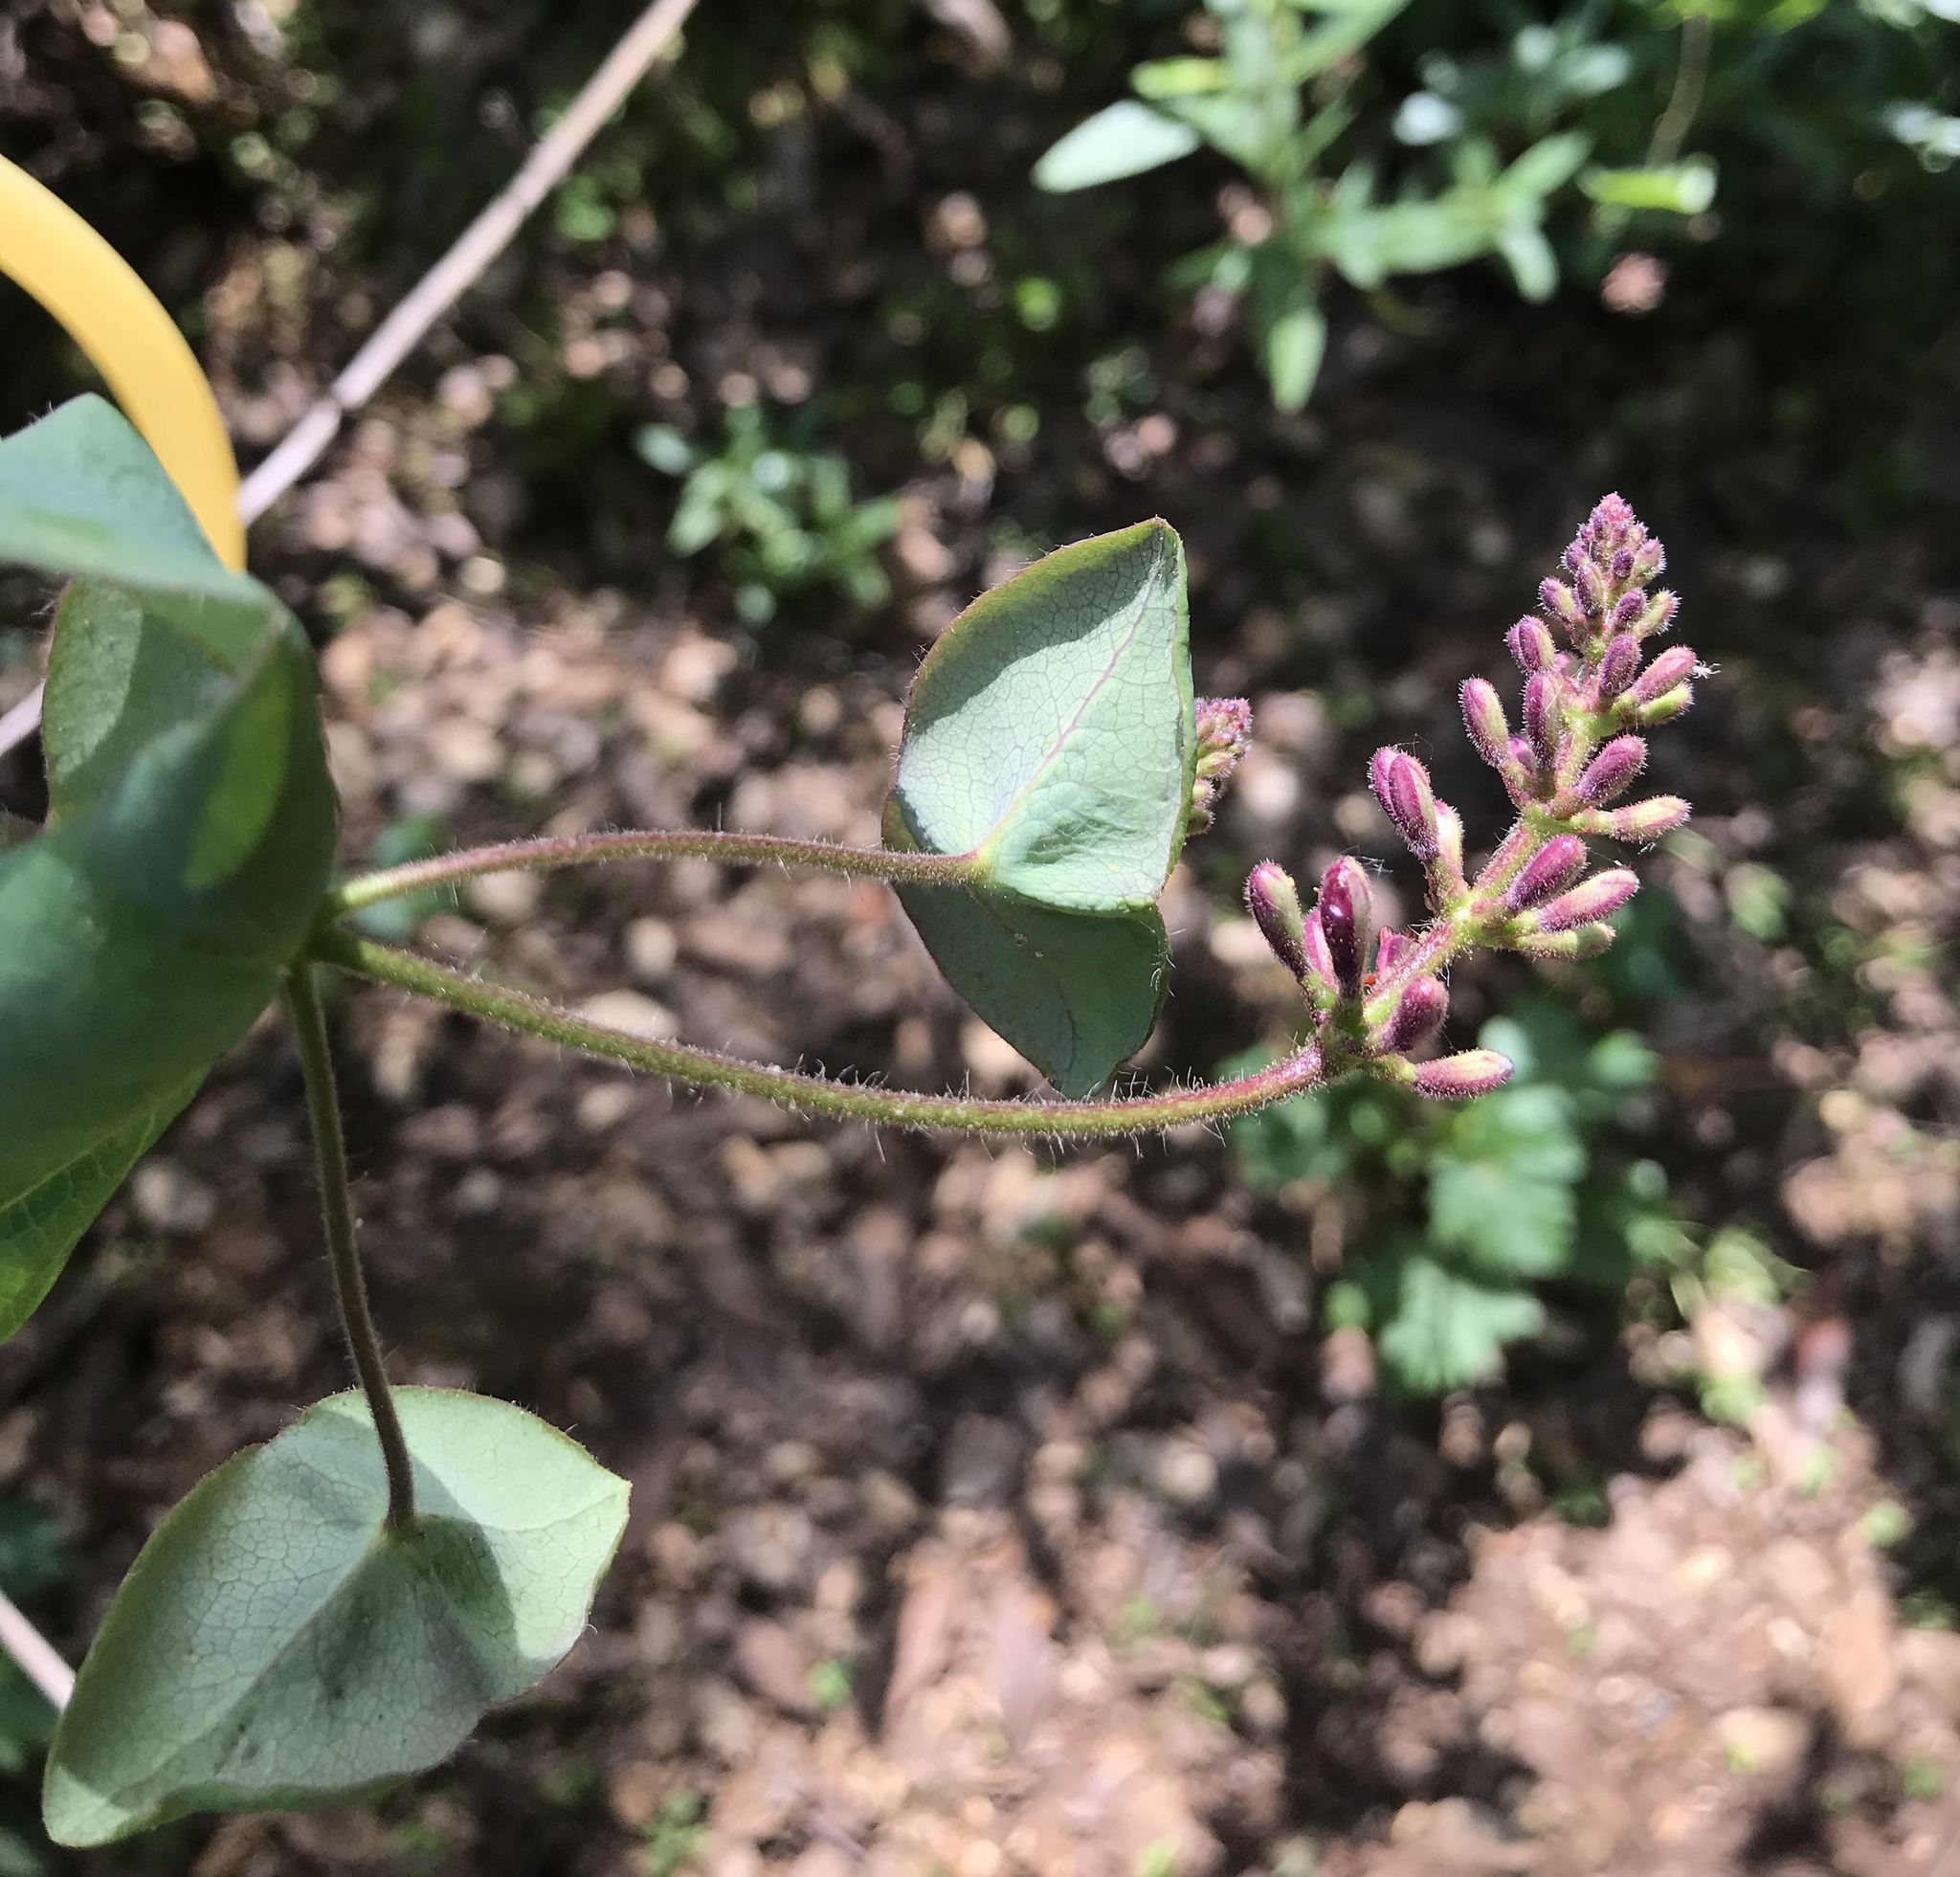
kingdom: Plantae
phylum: Tracheophyta
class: Magnoliopsida
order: Dipsacales
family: Caprifoliaceae
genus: Lonicera
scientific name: Lonicera hispidula
